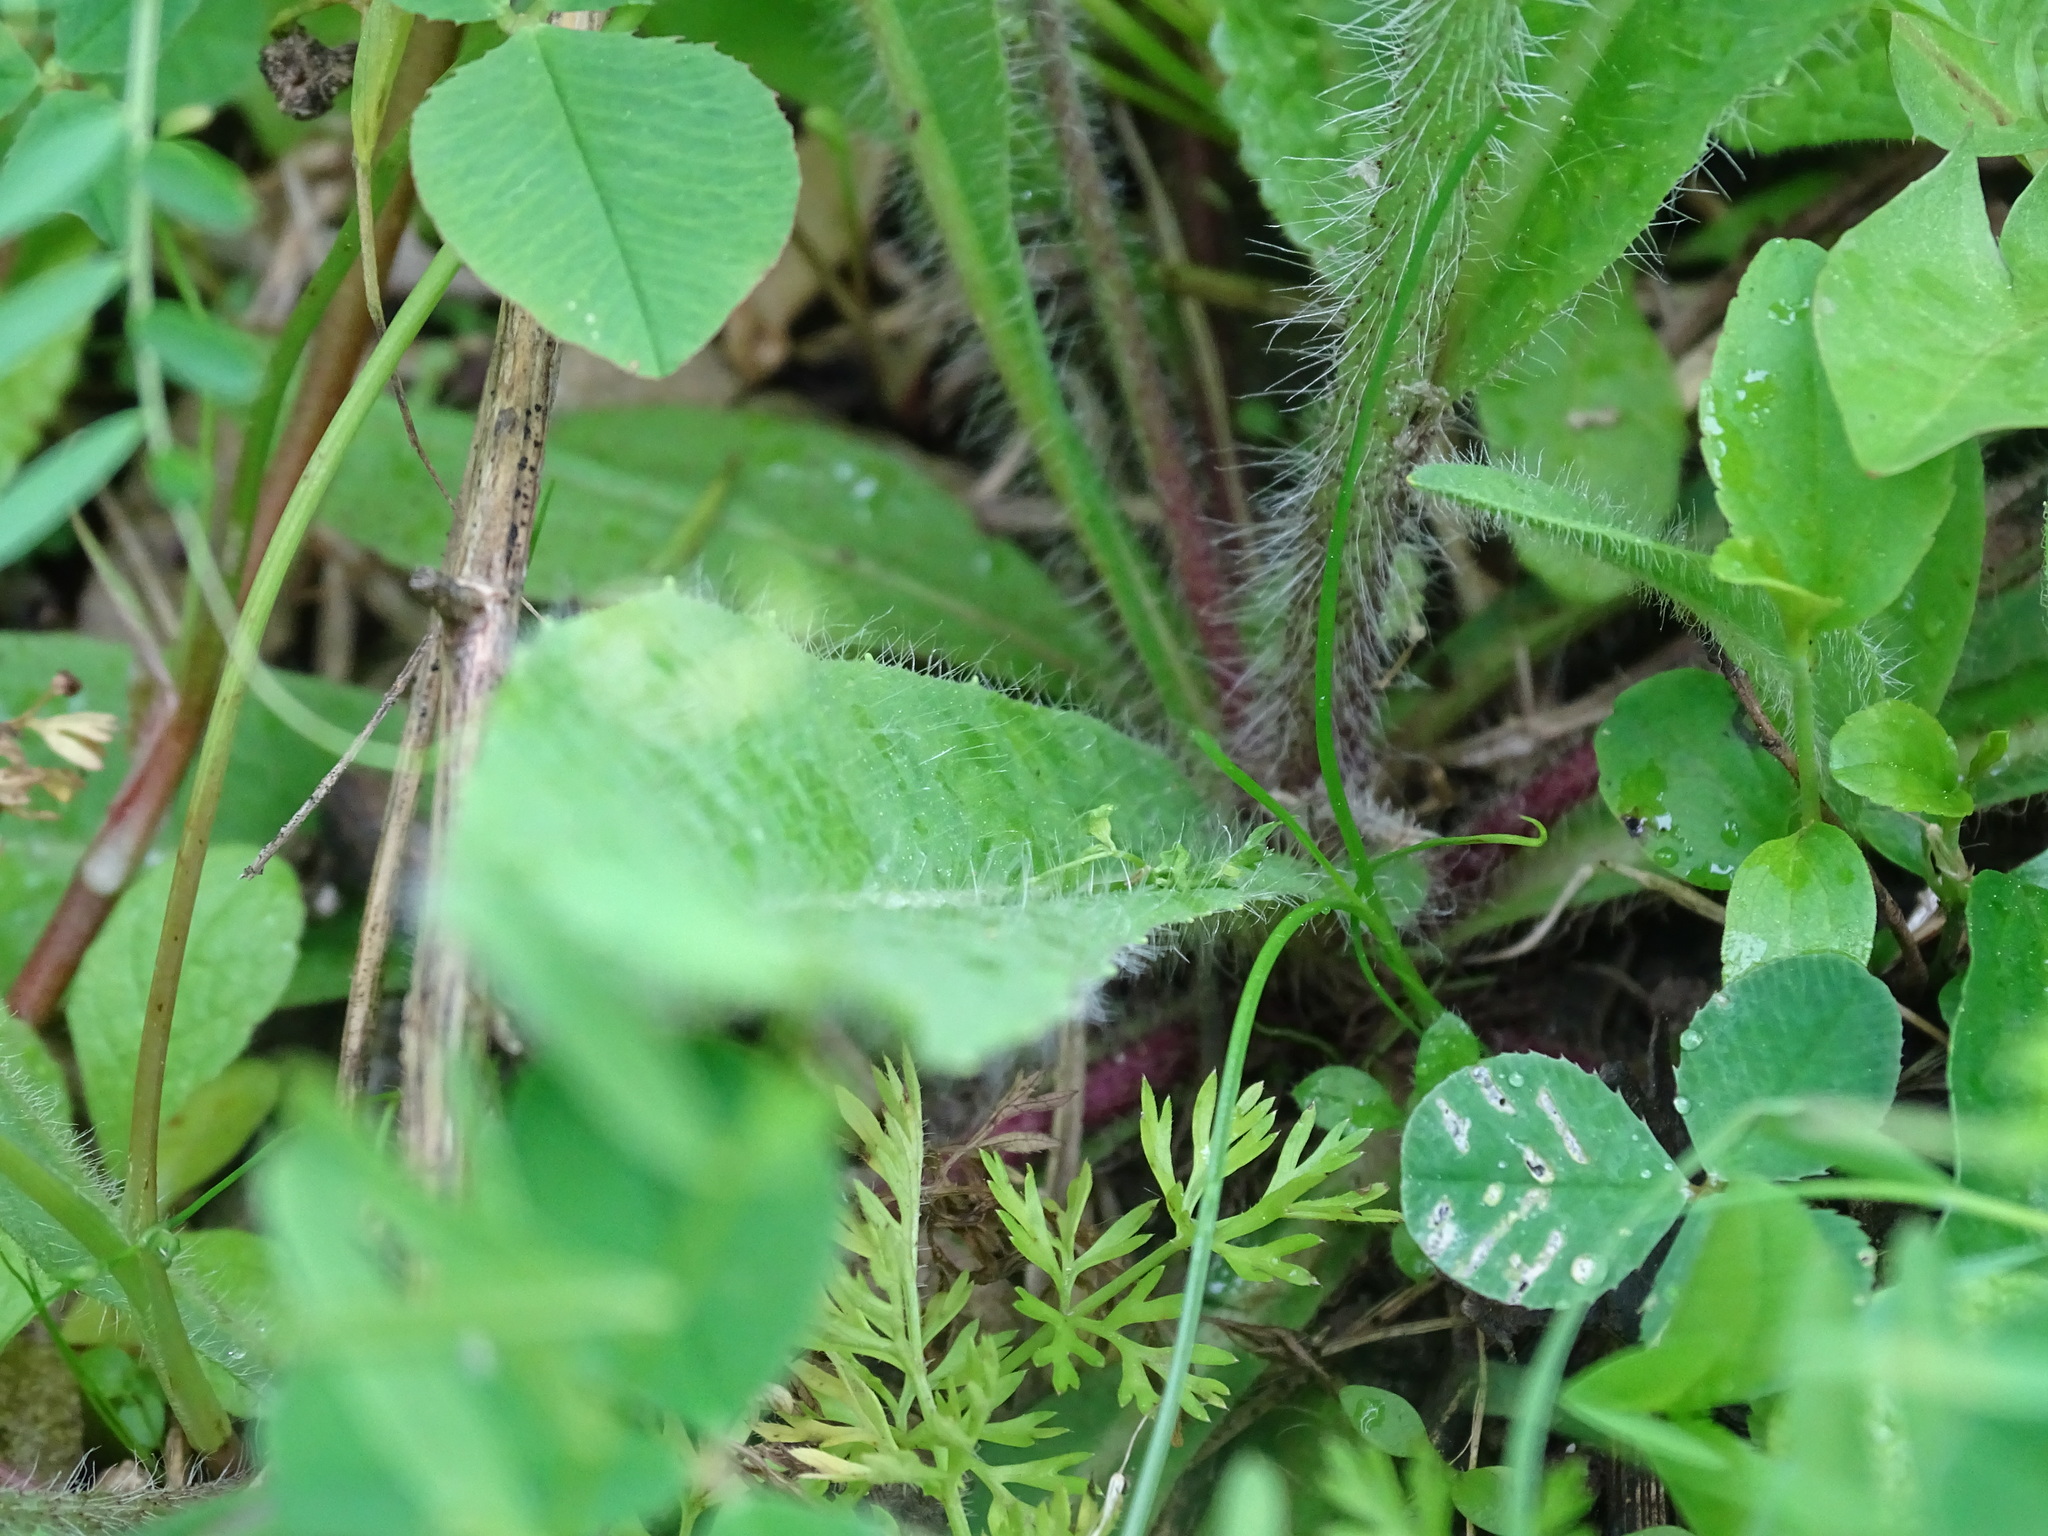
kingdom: Plantae
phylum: Tracheophyta
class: Magnoliopsida
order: Asterales
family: Asteraceae
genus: Pilosella
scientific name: Pilosella caespitosa
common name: Yellow fox-and-cubs
